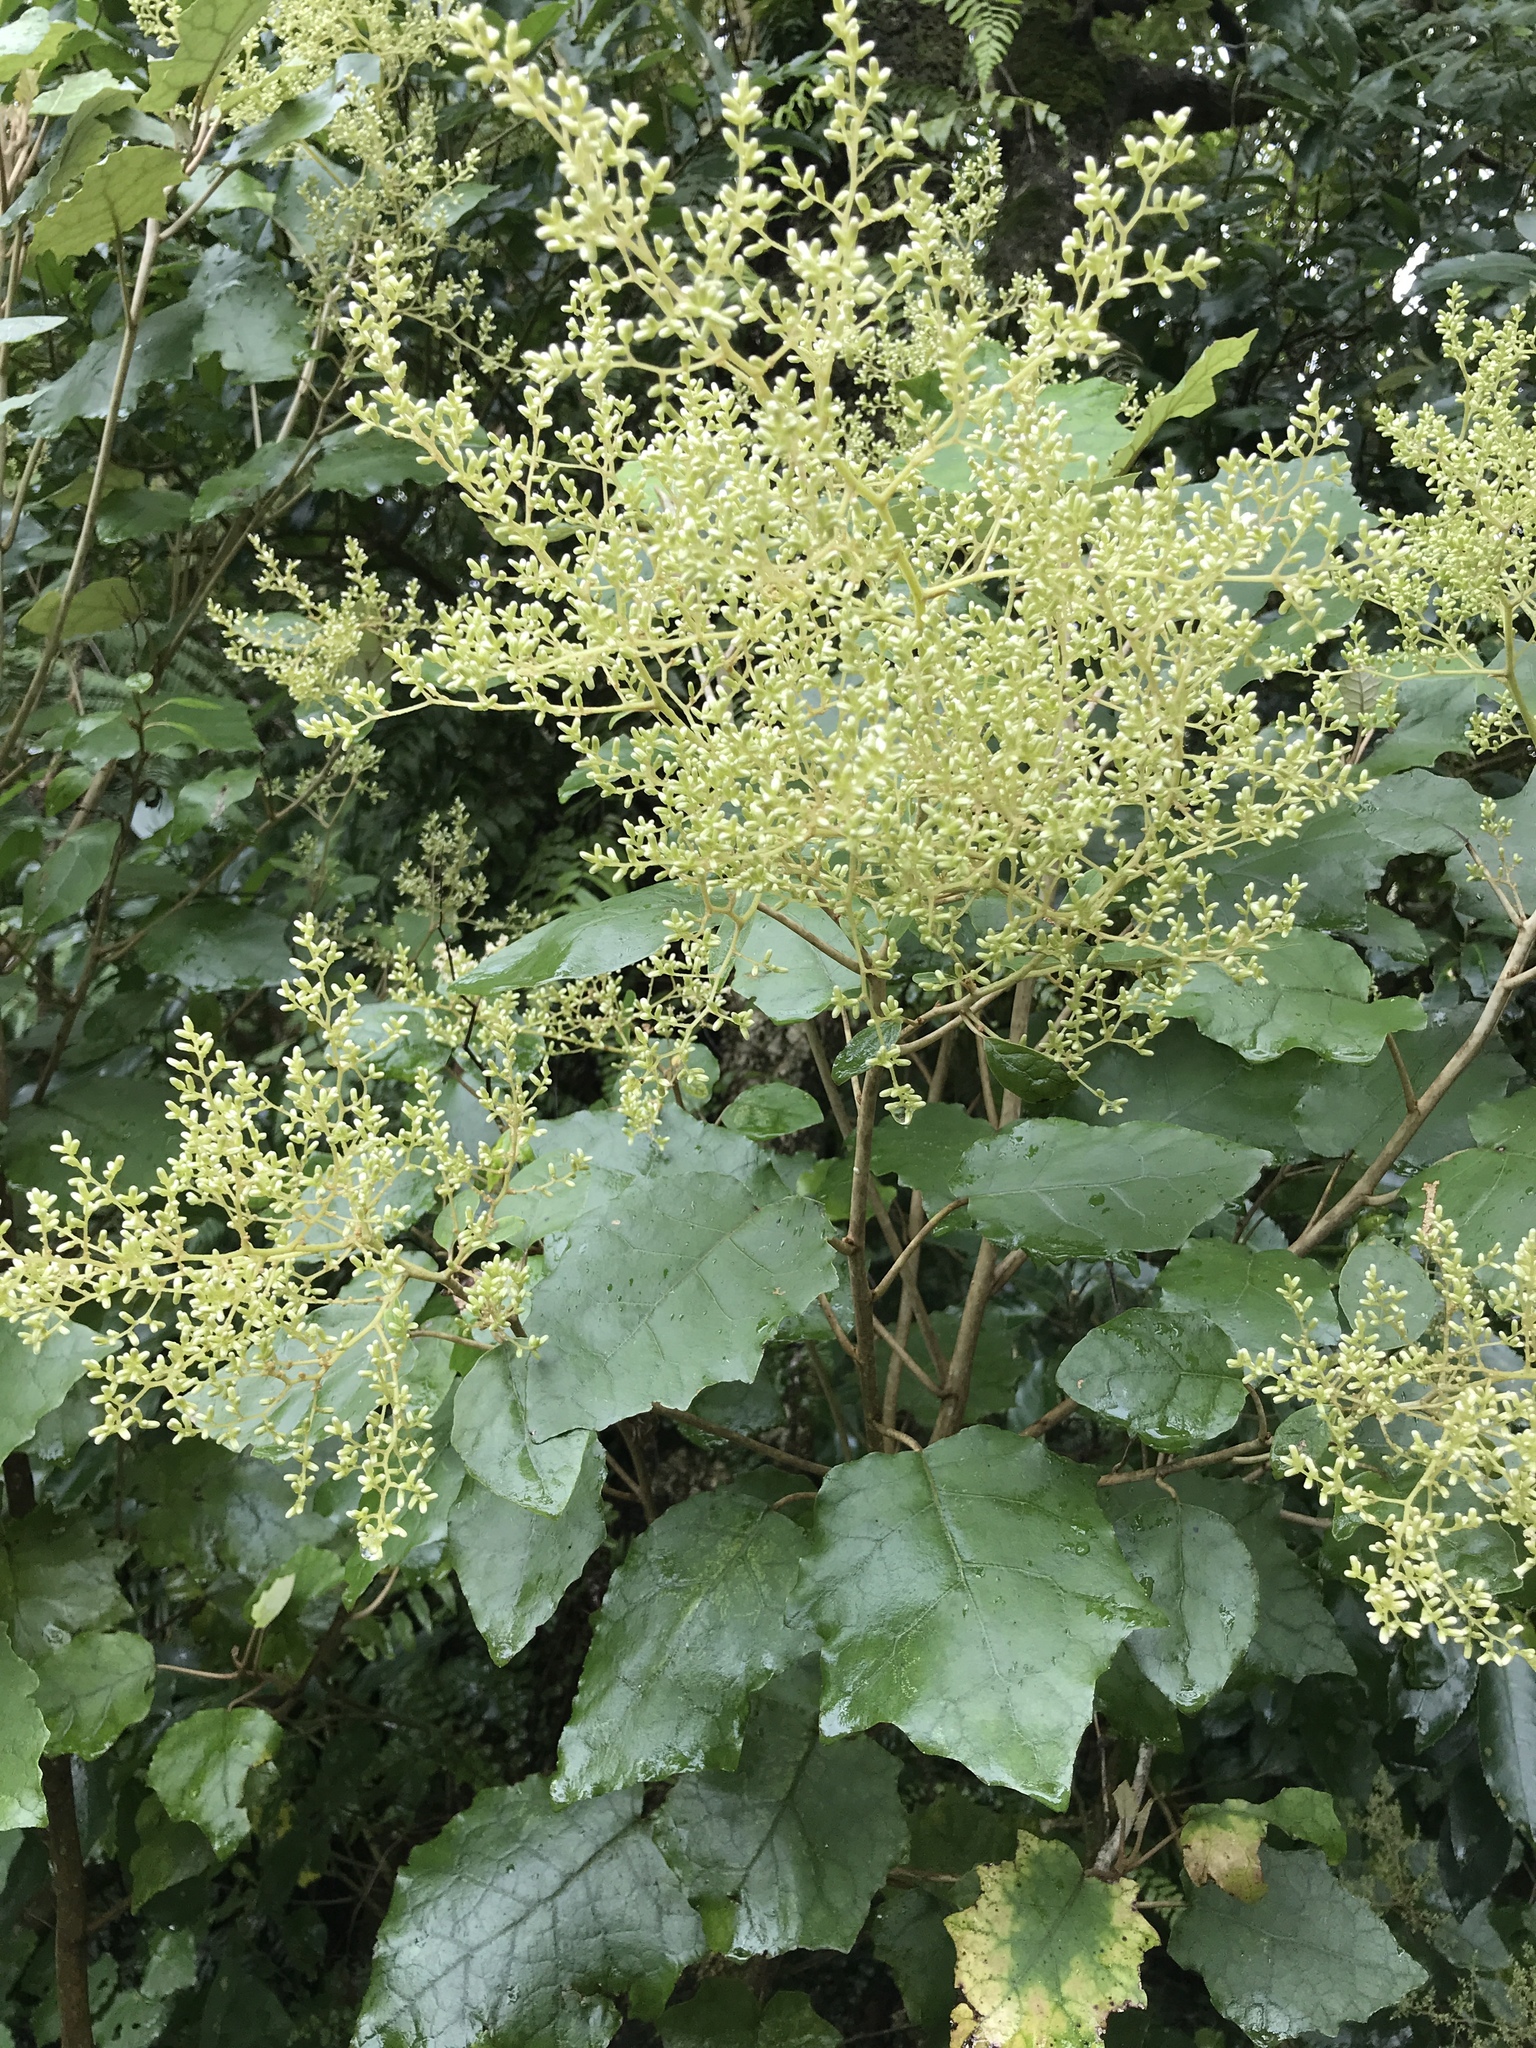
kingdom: Plantae
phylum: Tracheophyta
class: Magnoliopsida
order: Asterales
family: Asteraceae
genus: Brachyglottis
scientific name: Brachyglottis repanda
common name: Hedge ragwort
